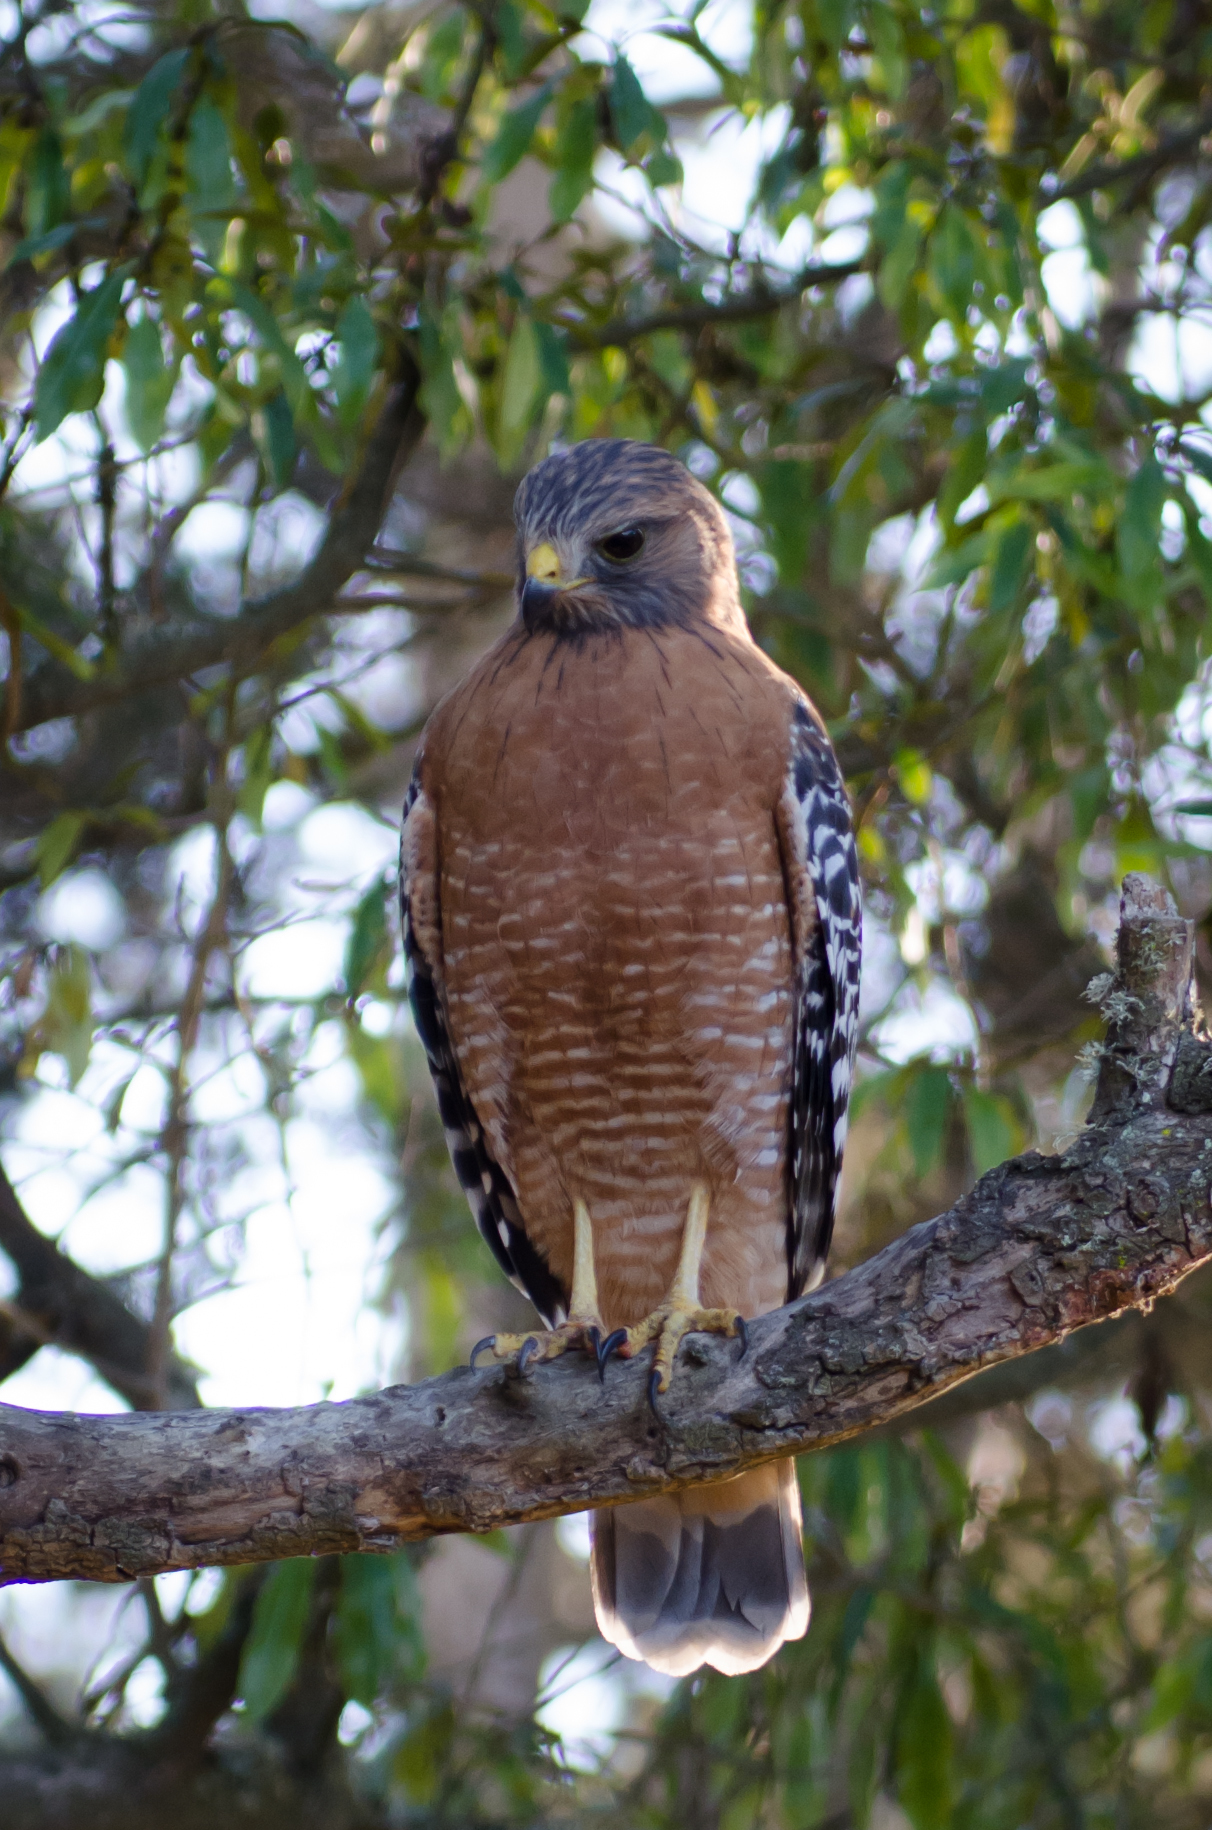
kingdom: Animalia
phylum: Chordata
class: Aves
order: Accipitriformes
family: Accipitridae
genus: Buteo
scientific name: Buteo lineatus
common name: Red-shouldered hawk
